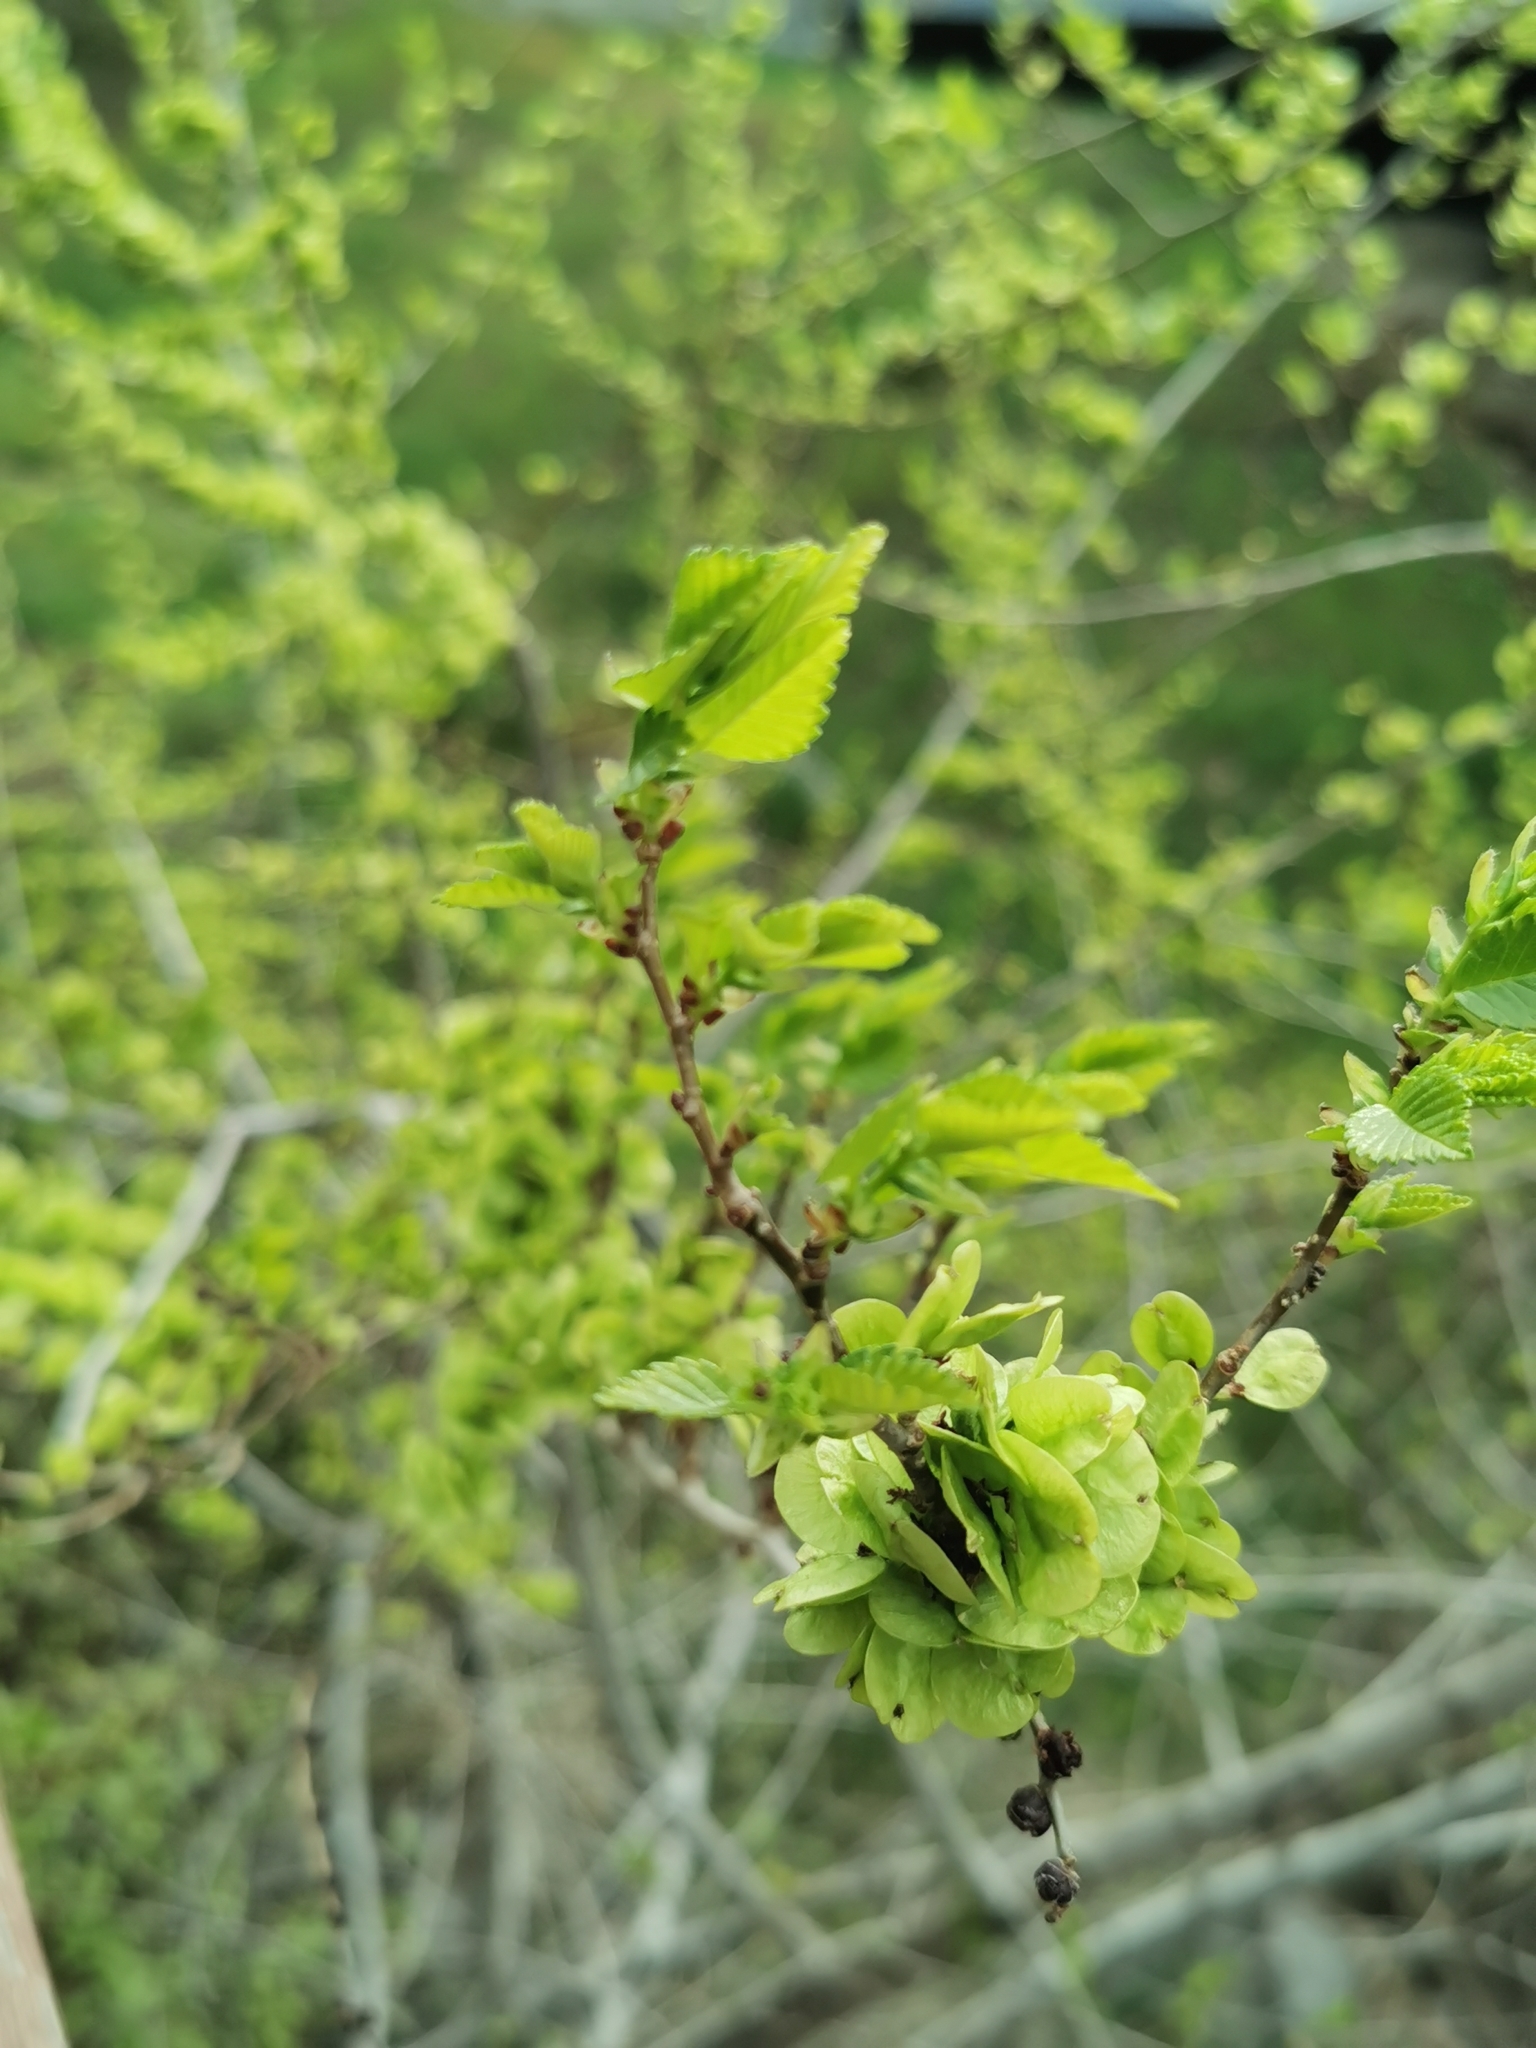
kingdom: Plantae
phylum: Tracheophyta
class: Magnoliopsida
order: Rosales
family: Ulmaceae
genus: Ulmus
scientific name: Ulmus pumila
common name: Siberian elm
